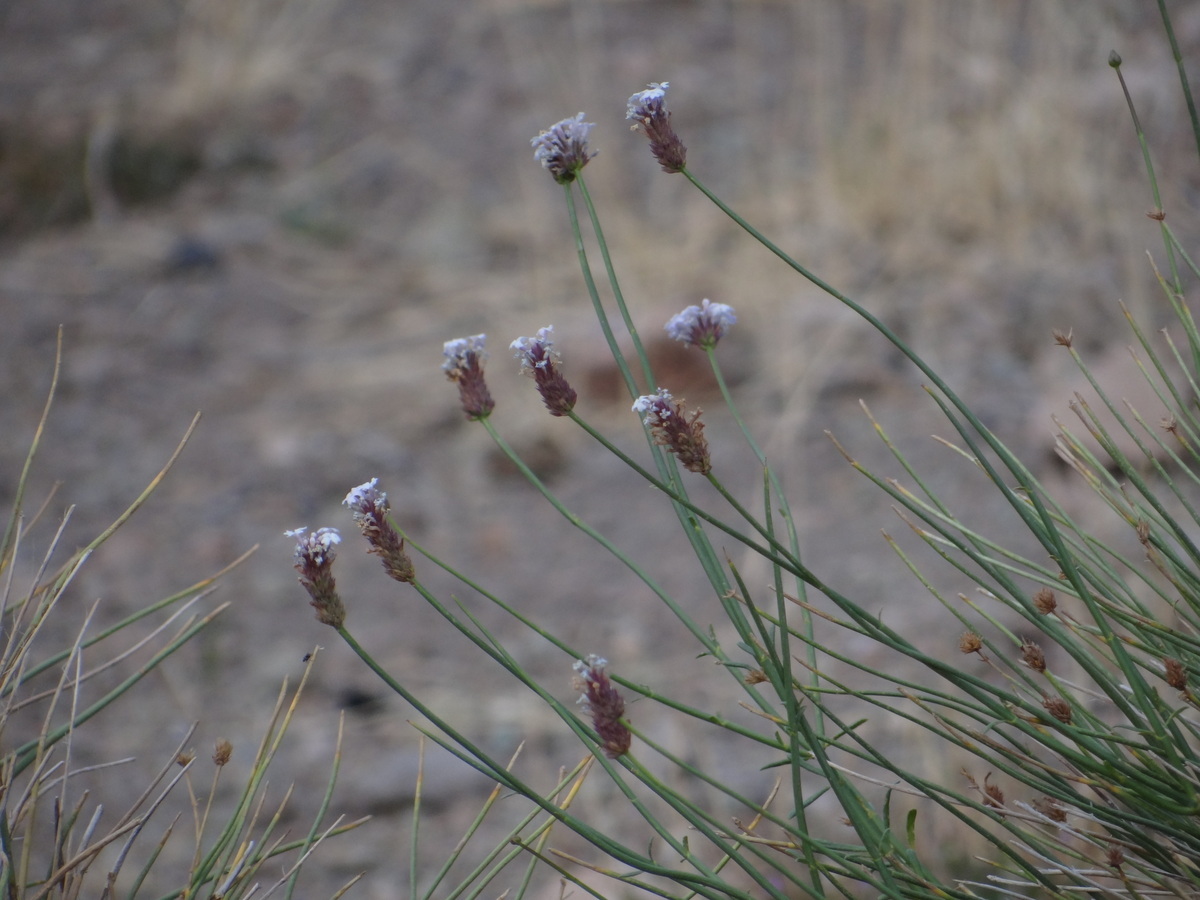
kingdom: Plantae
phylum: Tracheophyta
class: Magnoliopsida
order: Lamiales
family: Verbenaceae
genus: Junellia
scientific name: Junellia spathulata
